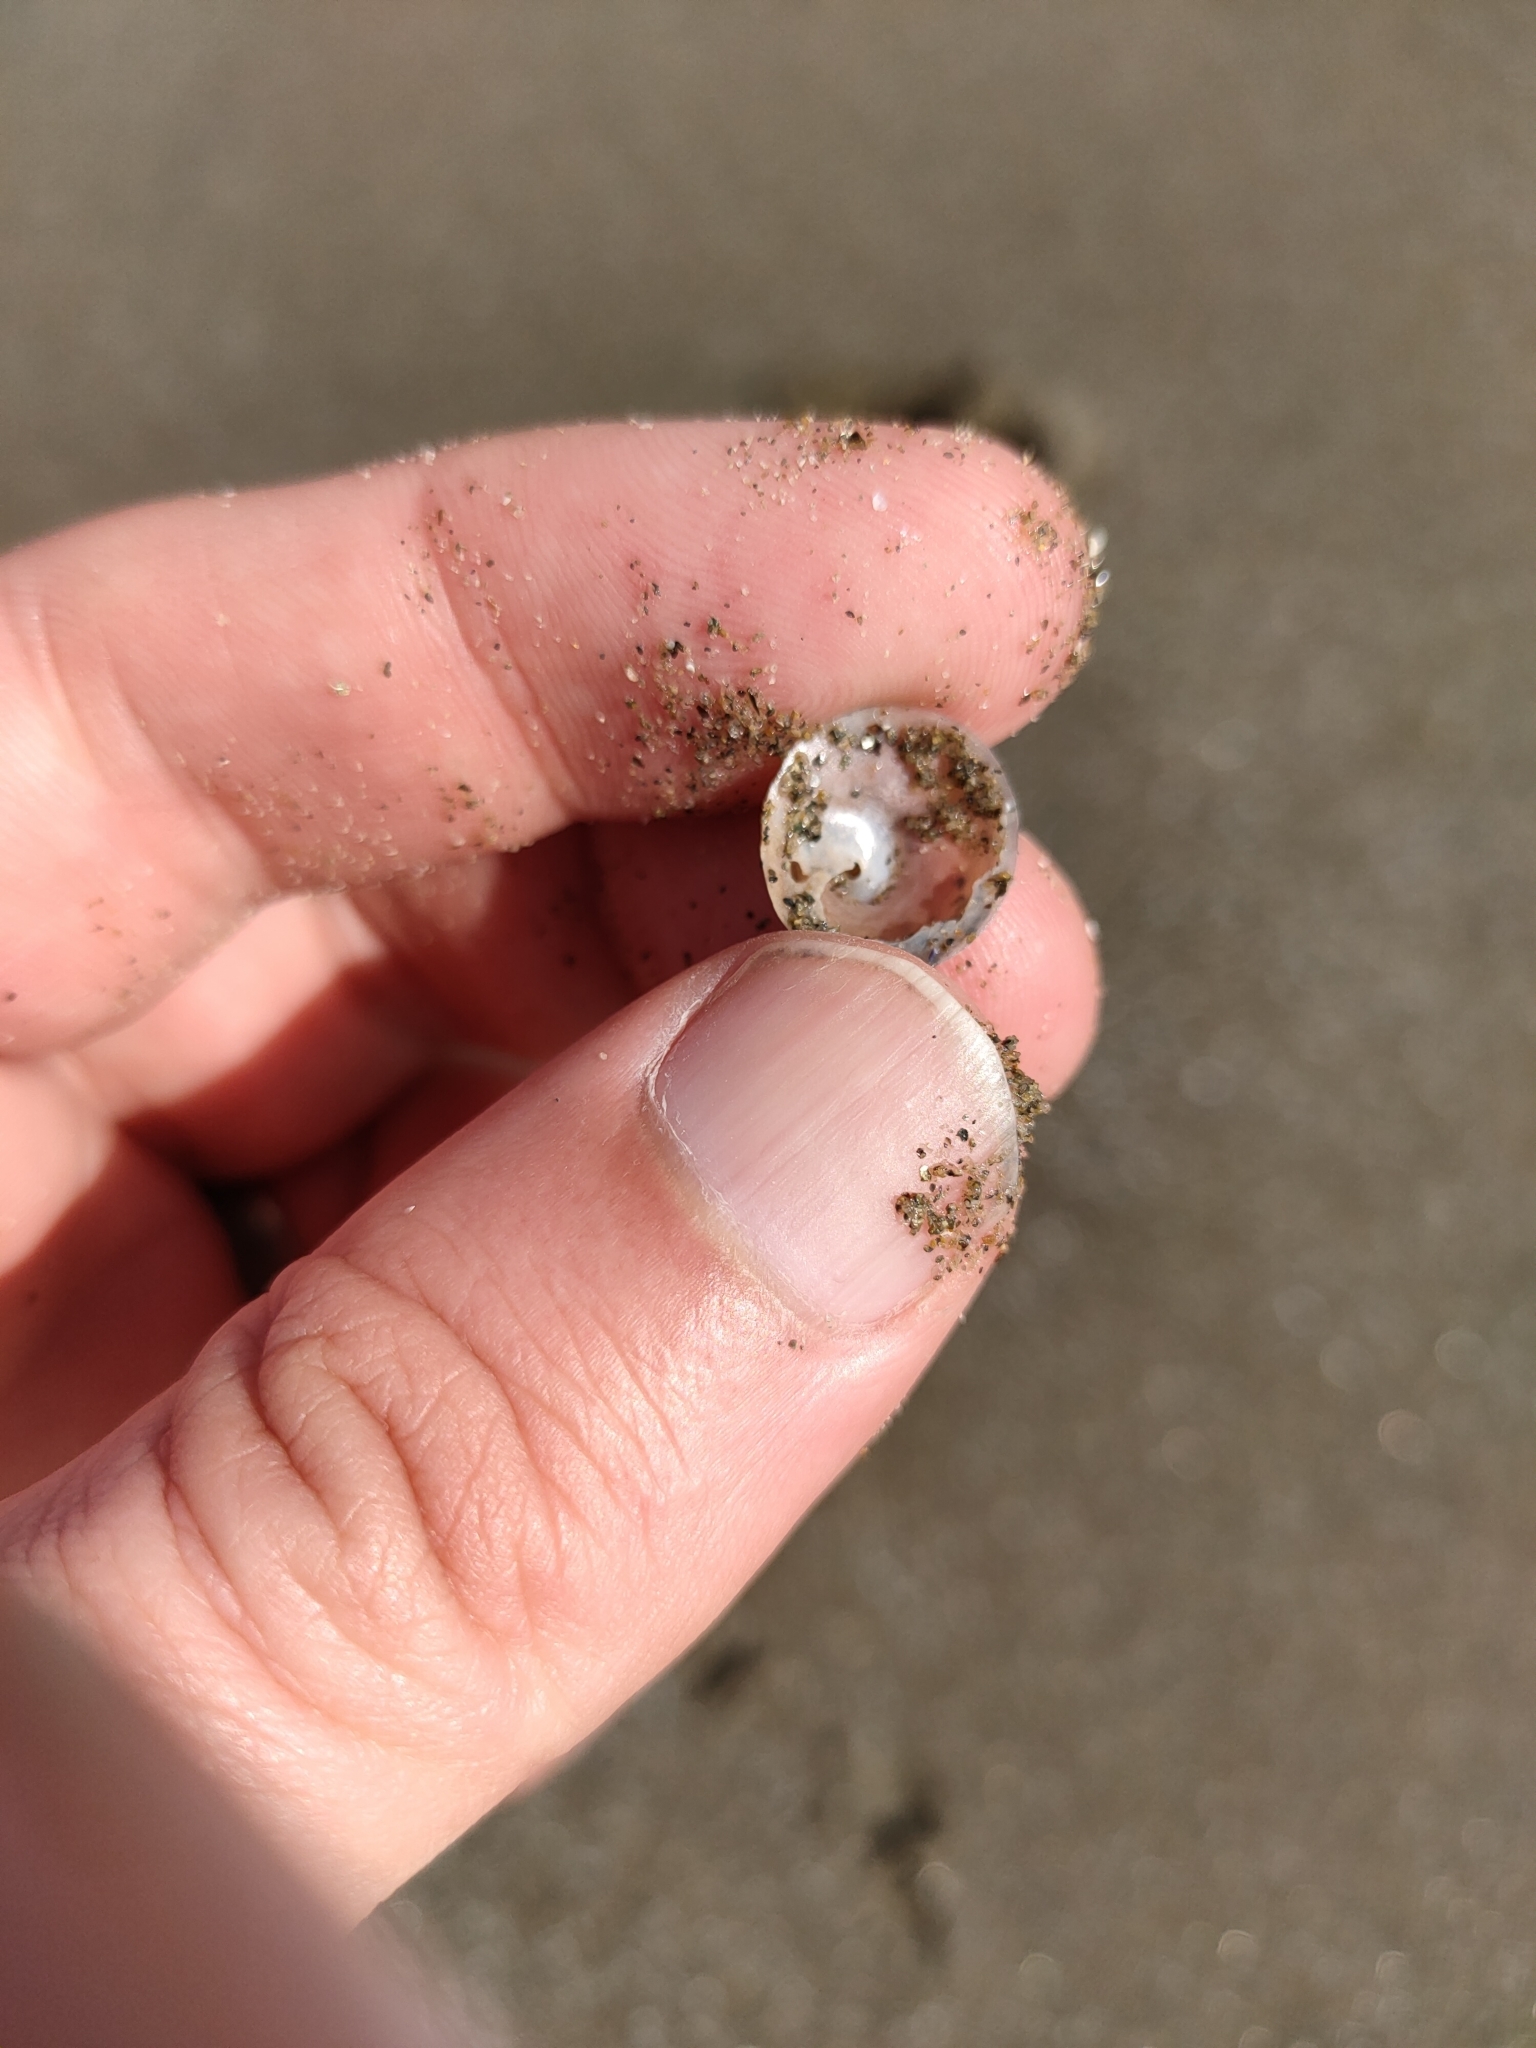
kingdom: Animalia
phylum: Mollusca
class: Gastropoda
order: Littorinimorpha
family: Calyptraeidae
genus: Sigapatella
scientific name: Sigapatella tenuis
